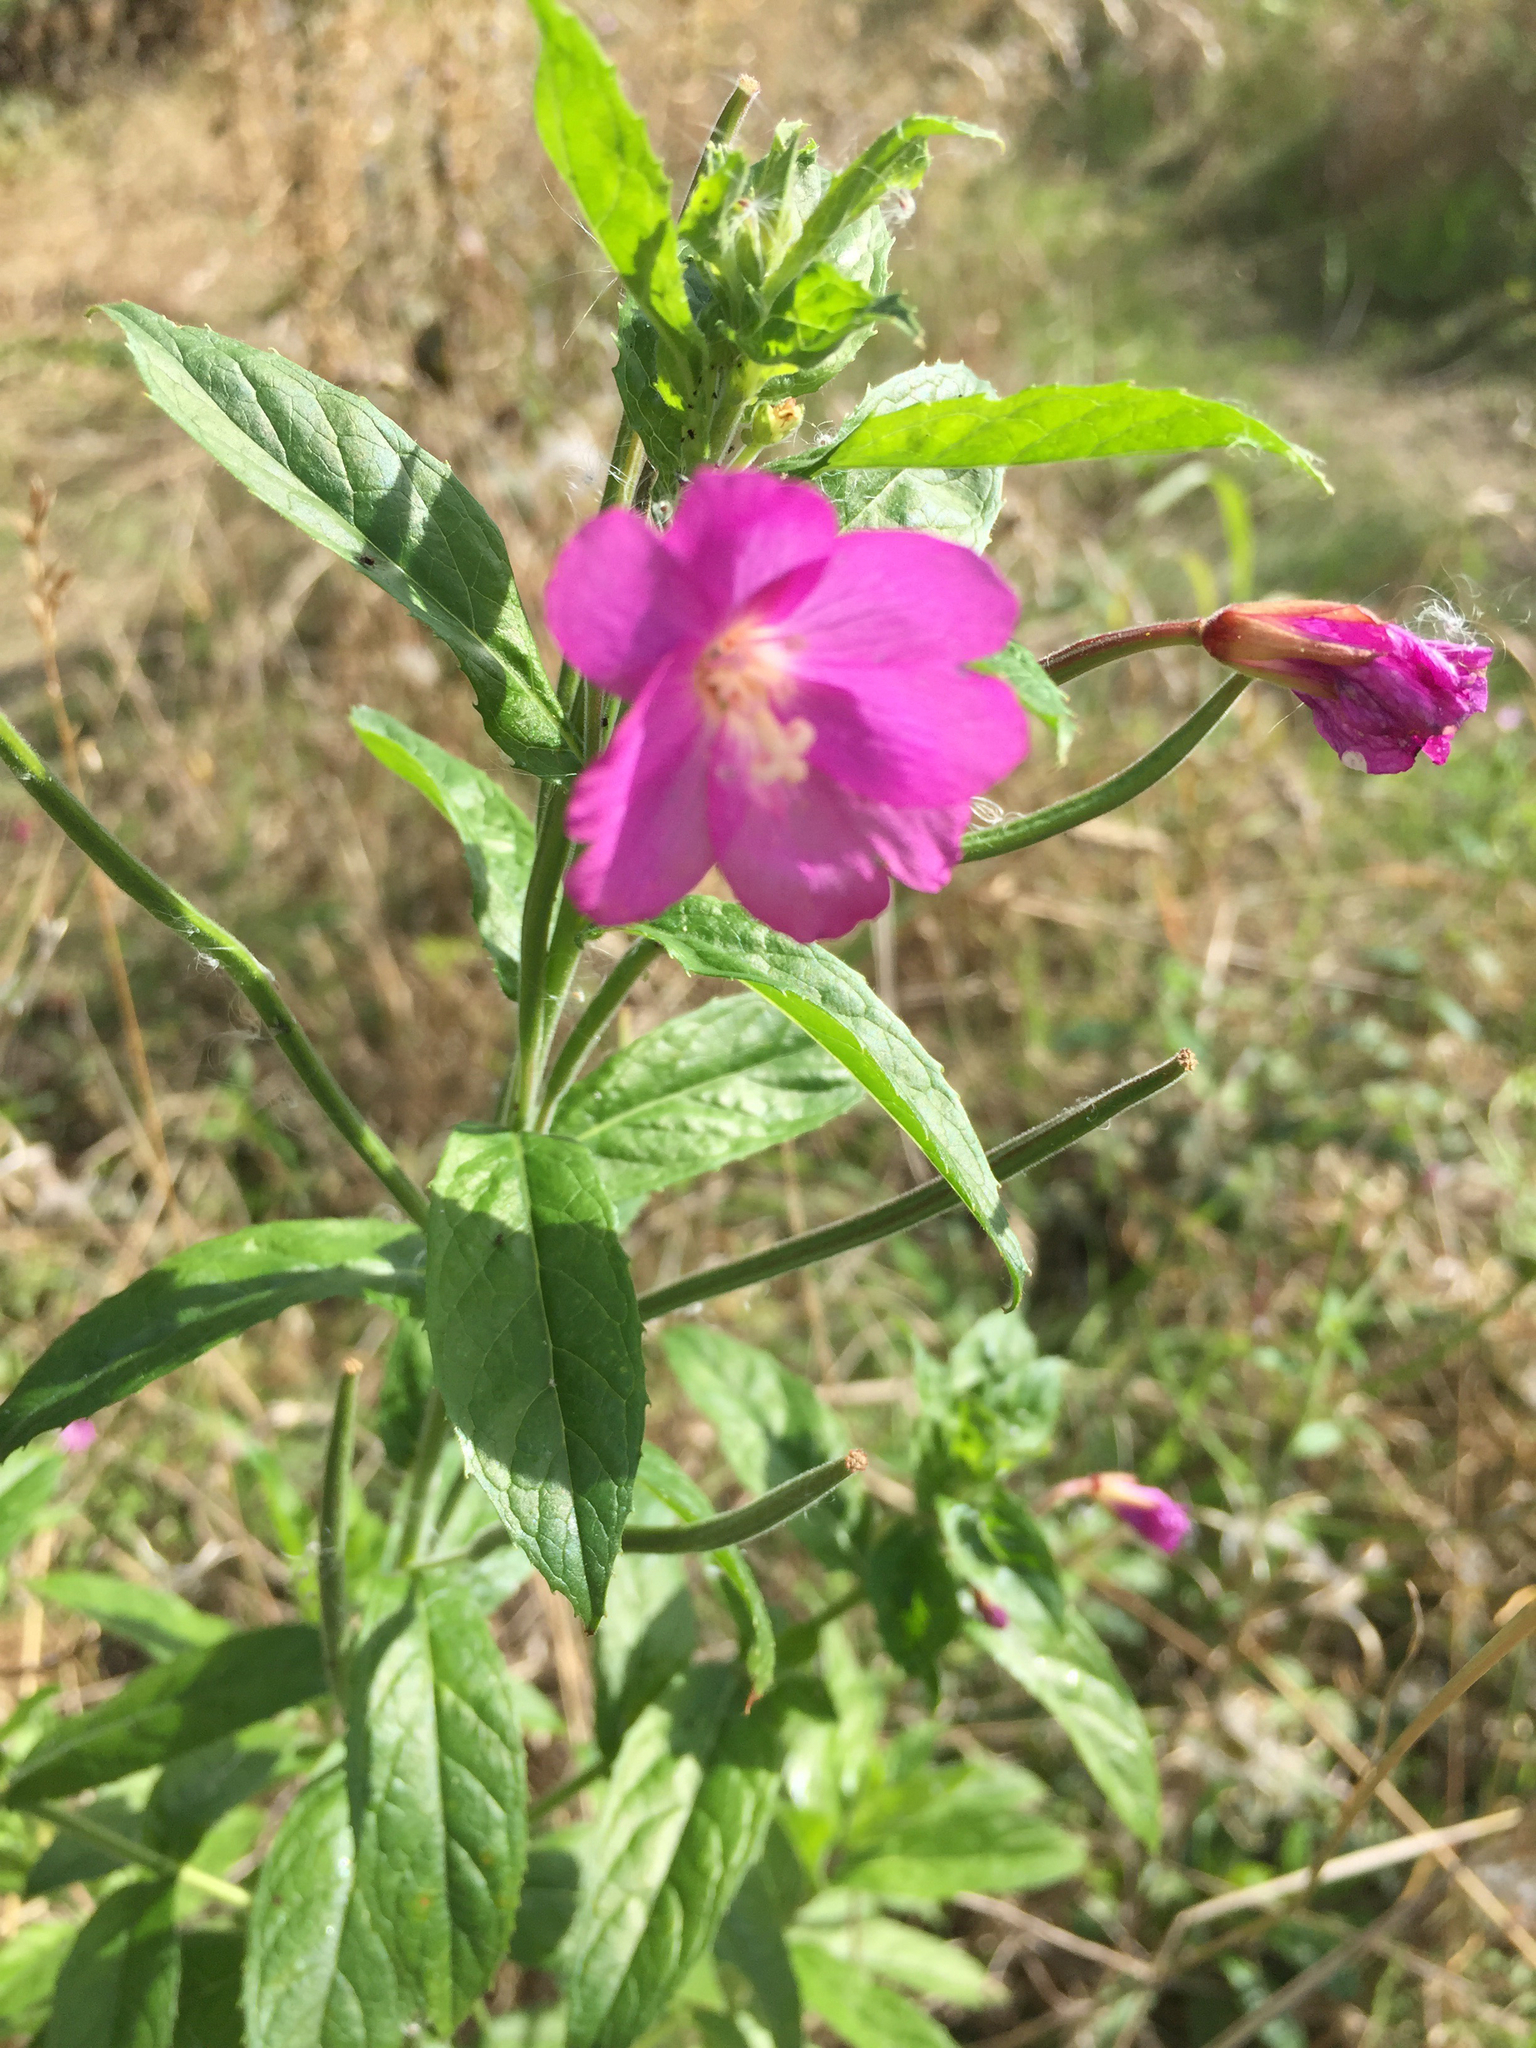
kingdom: Plantae
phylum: Tracheophyta
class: Magnoliopsida
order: Myrtales
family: Onagraceae
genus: Epilobium
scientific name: Epilobium hirsutum
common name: Great willowherb
